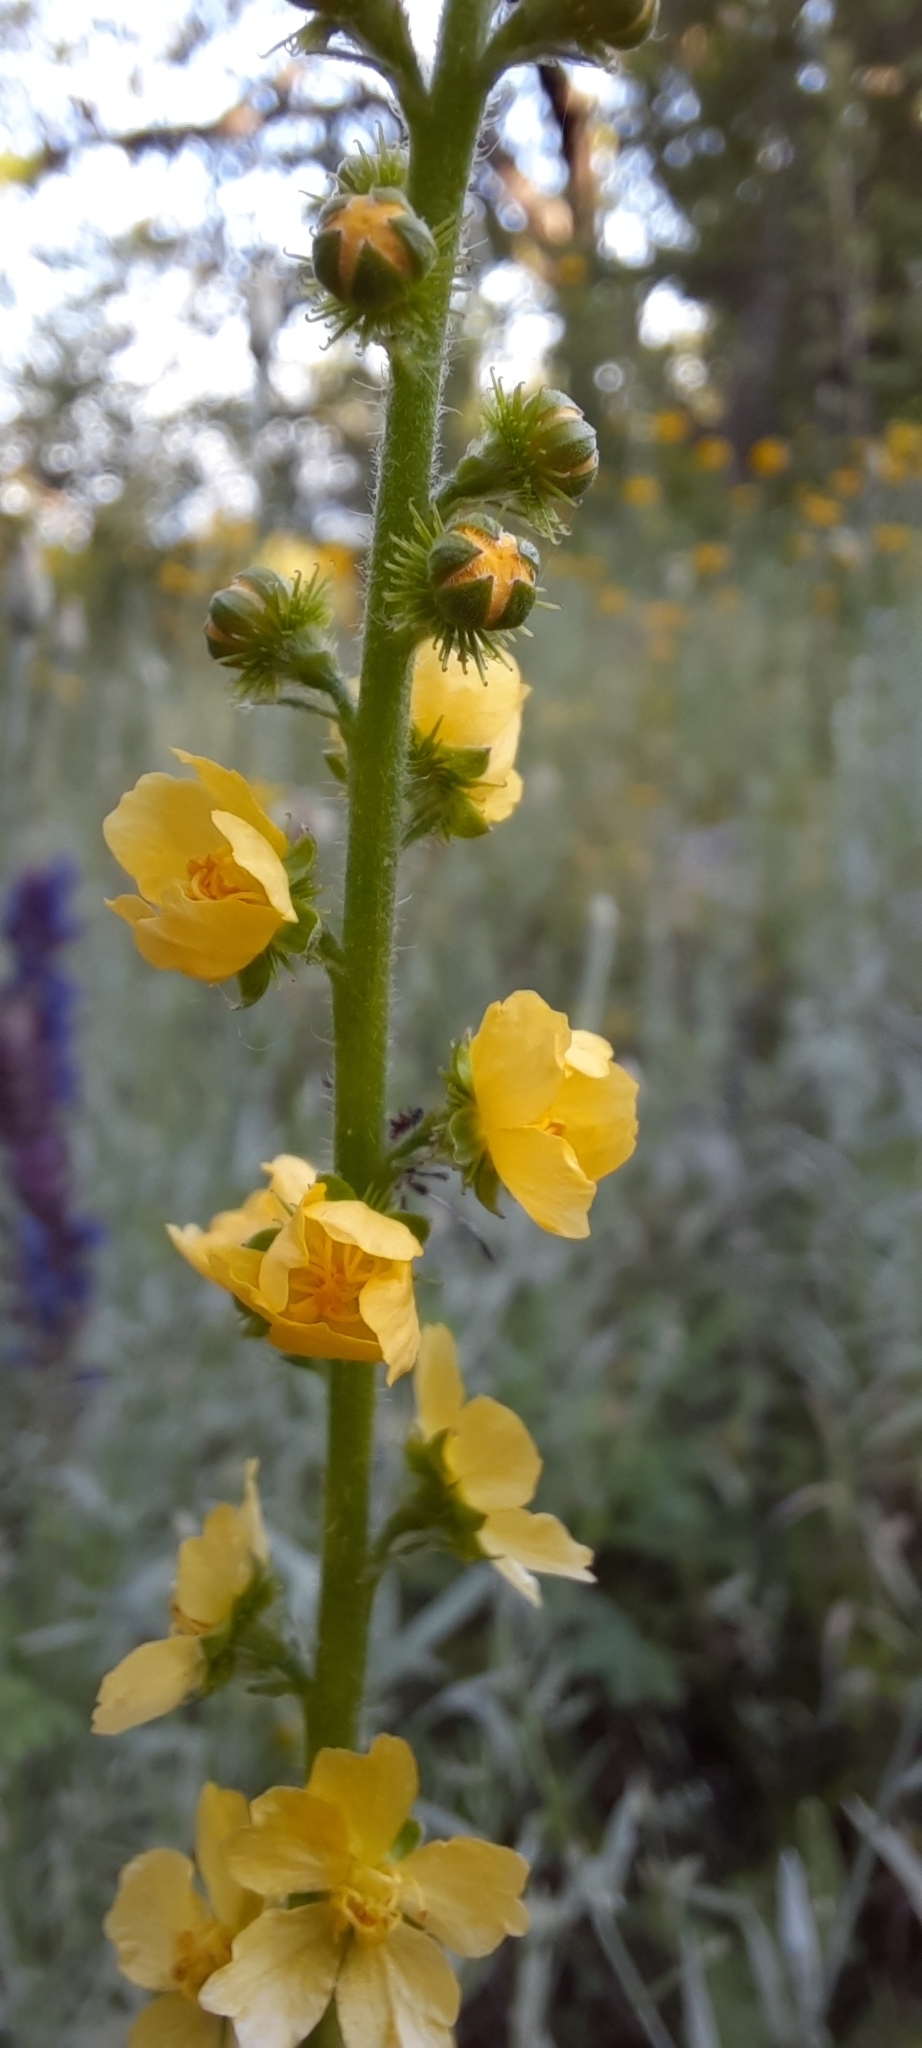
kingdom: Plantae
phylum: Tracheophyta
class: Magnoliopsida
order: Rosales
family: Rosaceae
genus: Agrimonia
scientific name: Agrimonia eupatoria
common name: Agrimony
